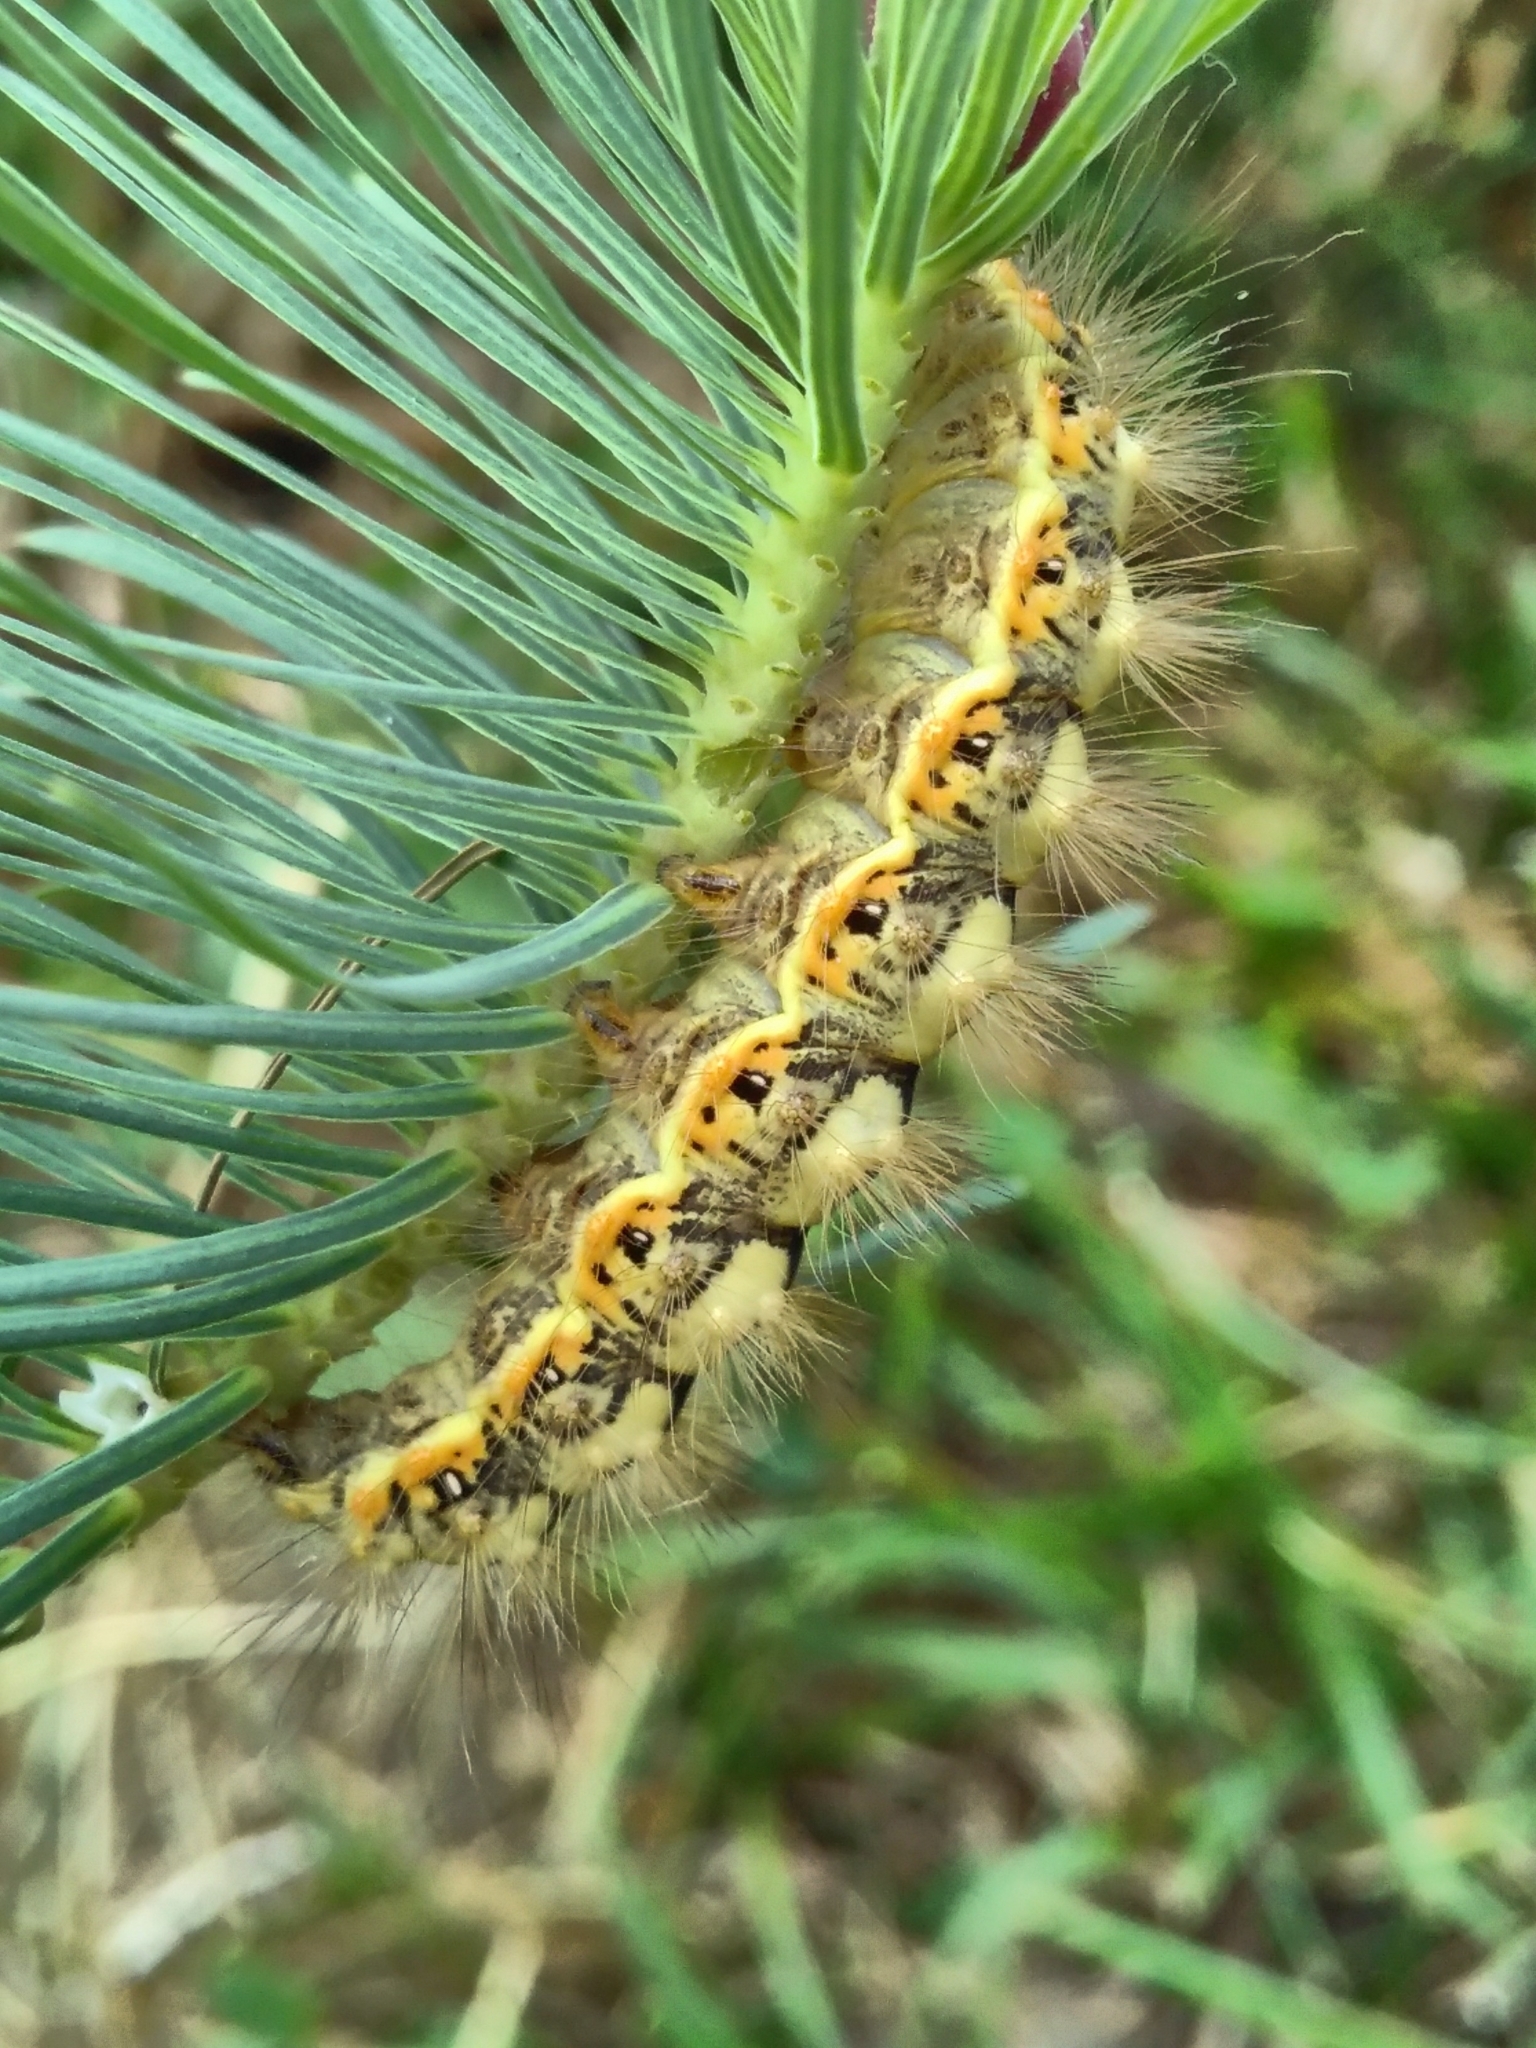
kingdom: Animalia
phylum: Arthropoda
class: Insecta
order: Lepidoptera
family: Noctuidae
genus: Acronicta
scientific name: Acronicta euphorbiae
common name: Sweet gale moth
